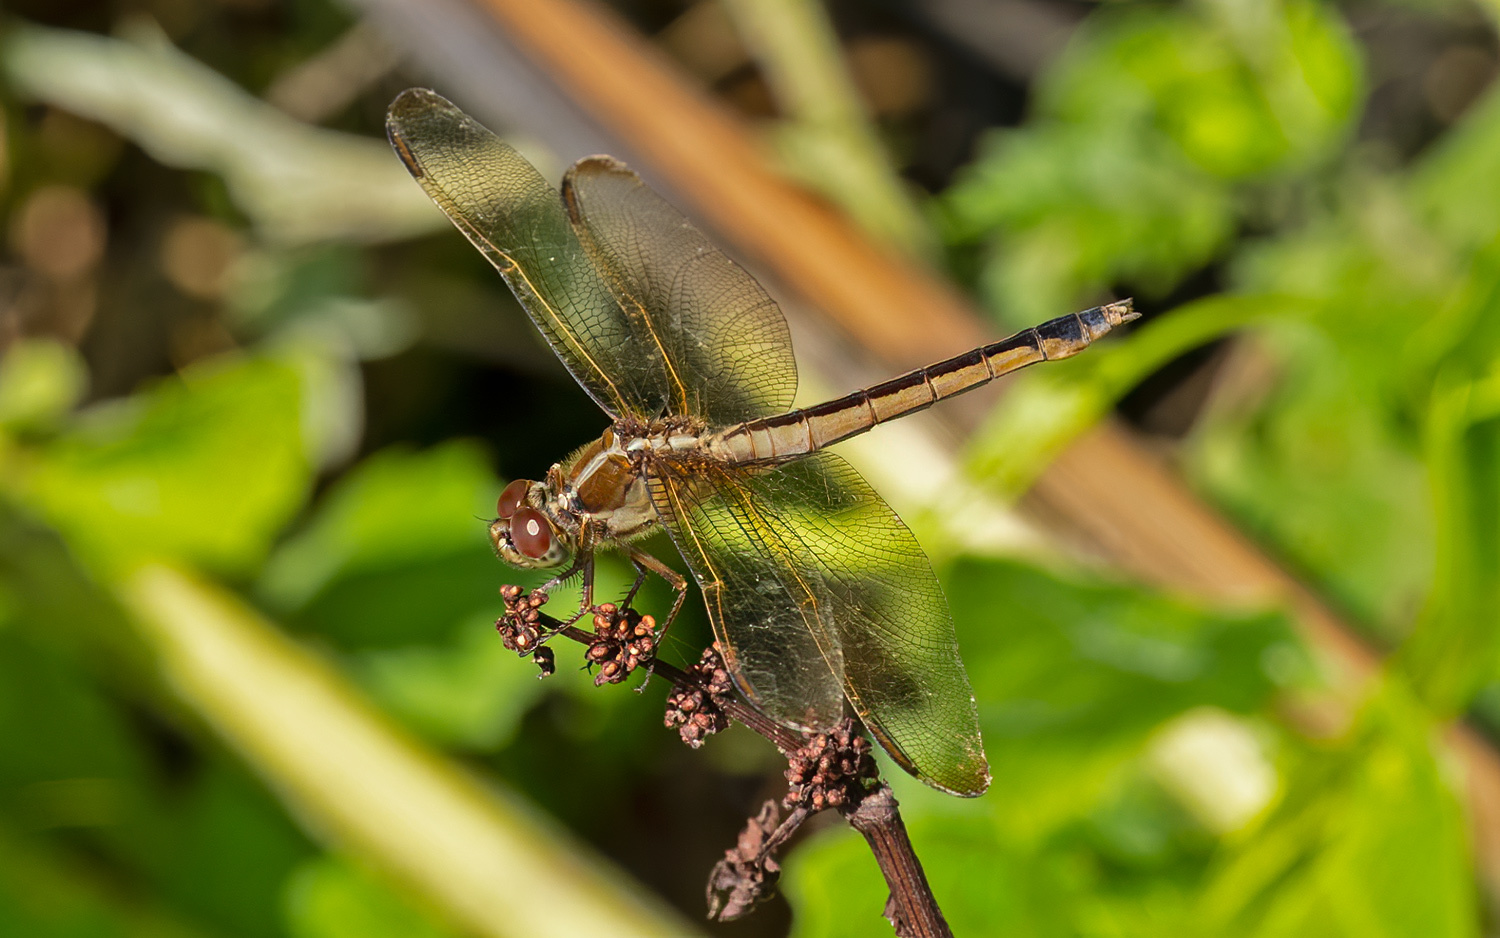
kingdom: Animalia
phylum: Arthropoda
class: Insecta
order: Odonata
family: Libellulidae
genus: Libellula
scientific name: Libellula needhami
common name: Needham's skimmer
